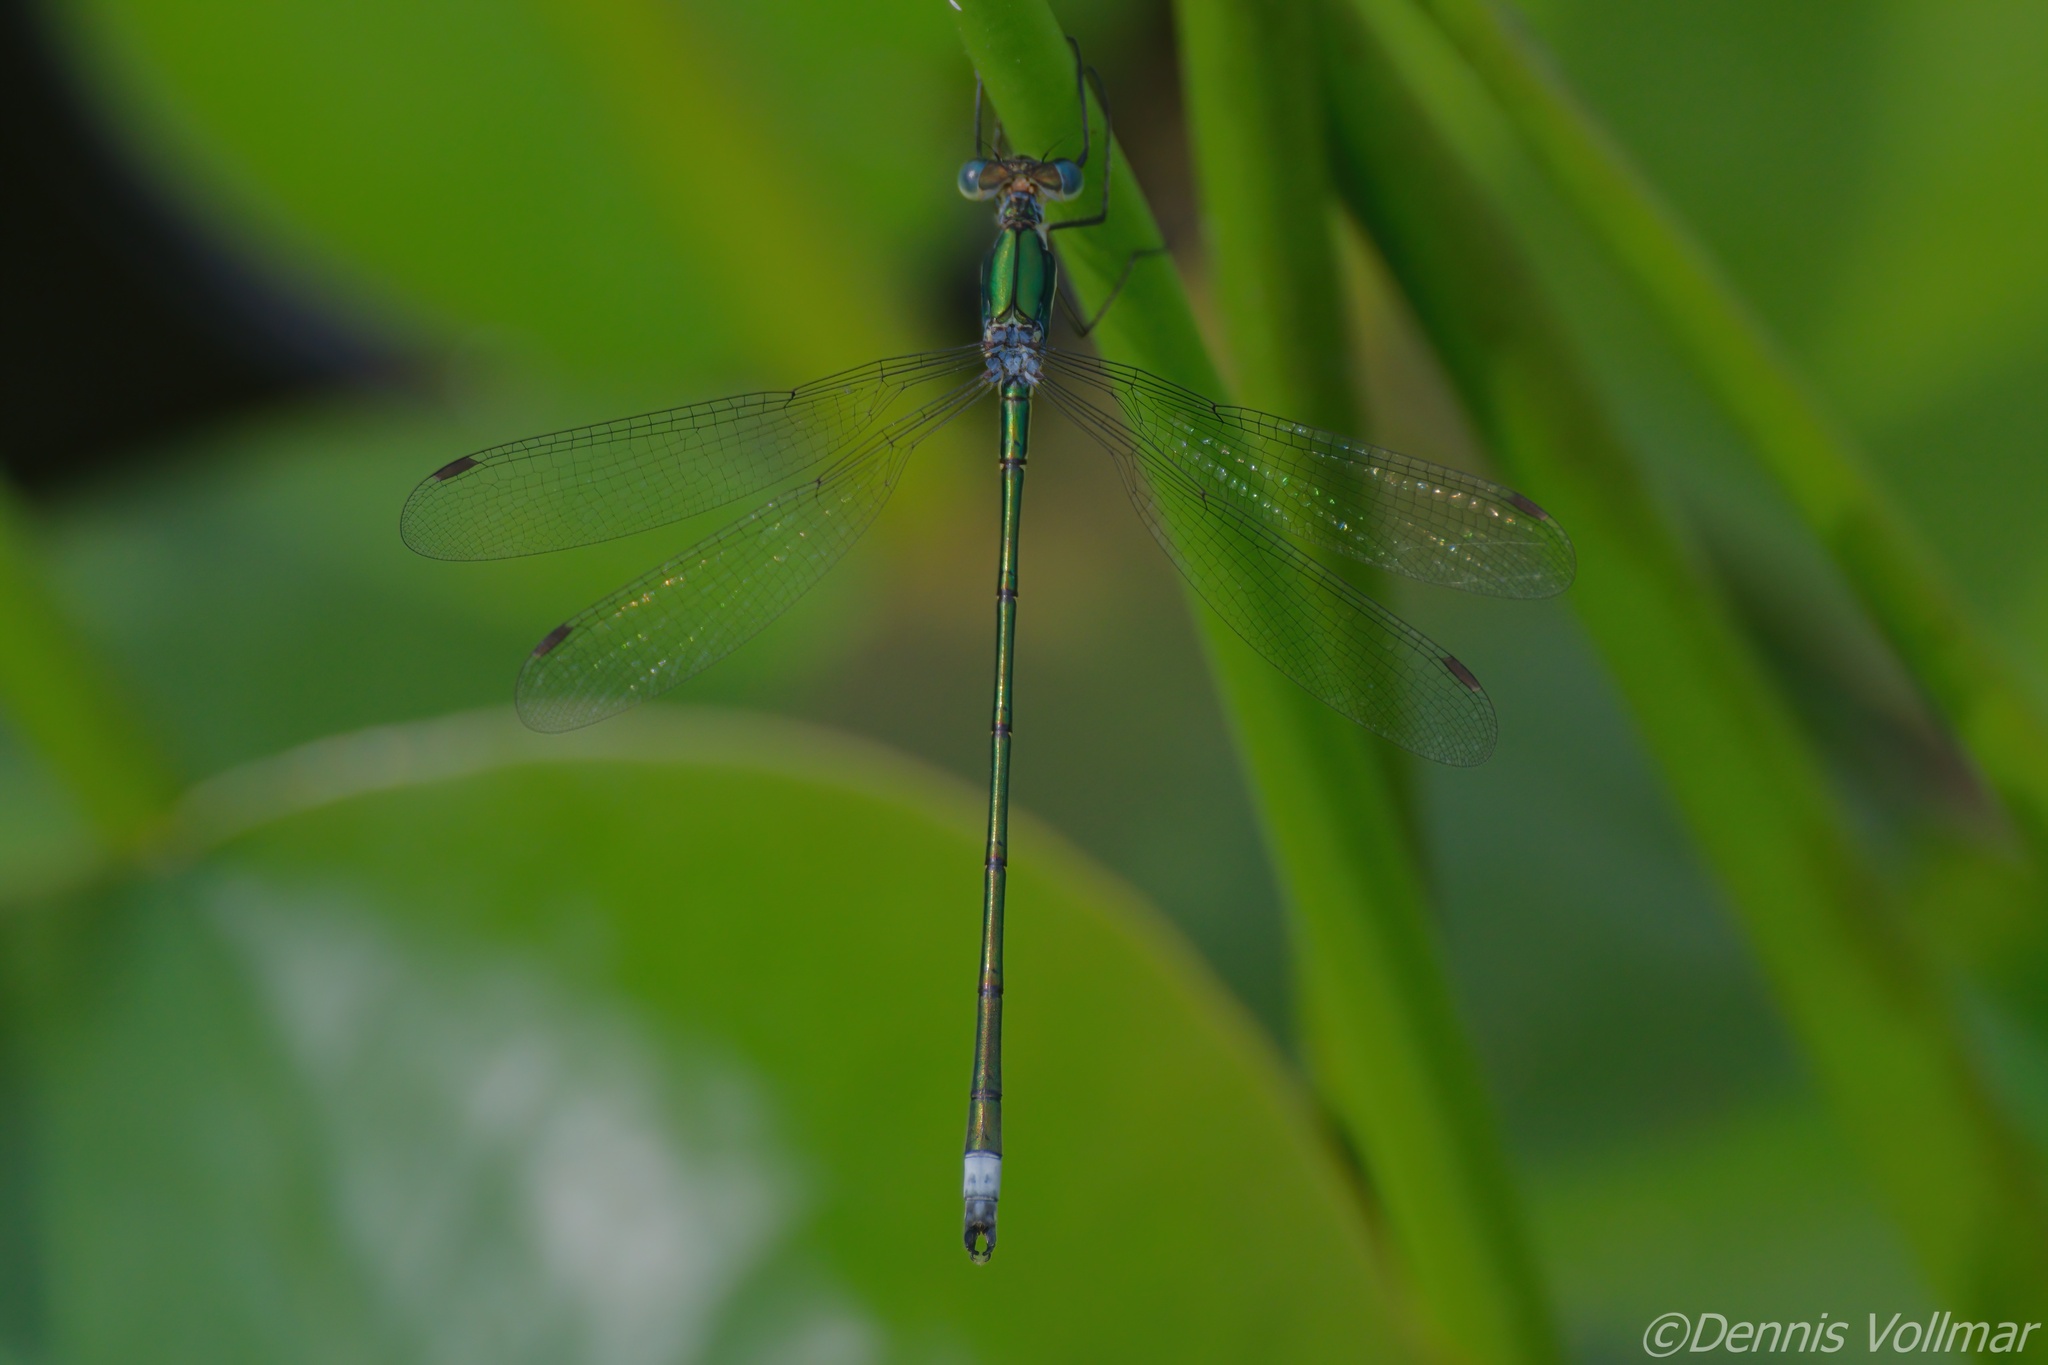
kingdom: Animalia
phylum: Arthropoda
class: Insecta
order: Odonata
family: Lestidae
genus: Lestes
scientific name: Lestes inaequalis
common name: Elegant spreadwing
